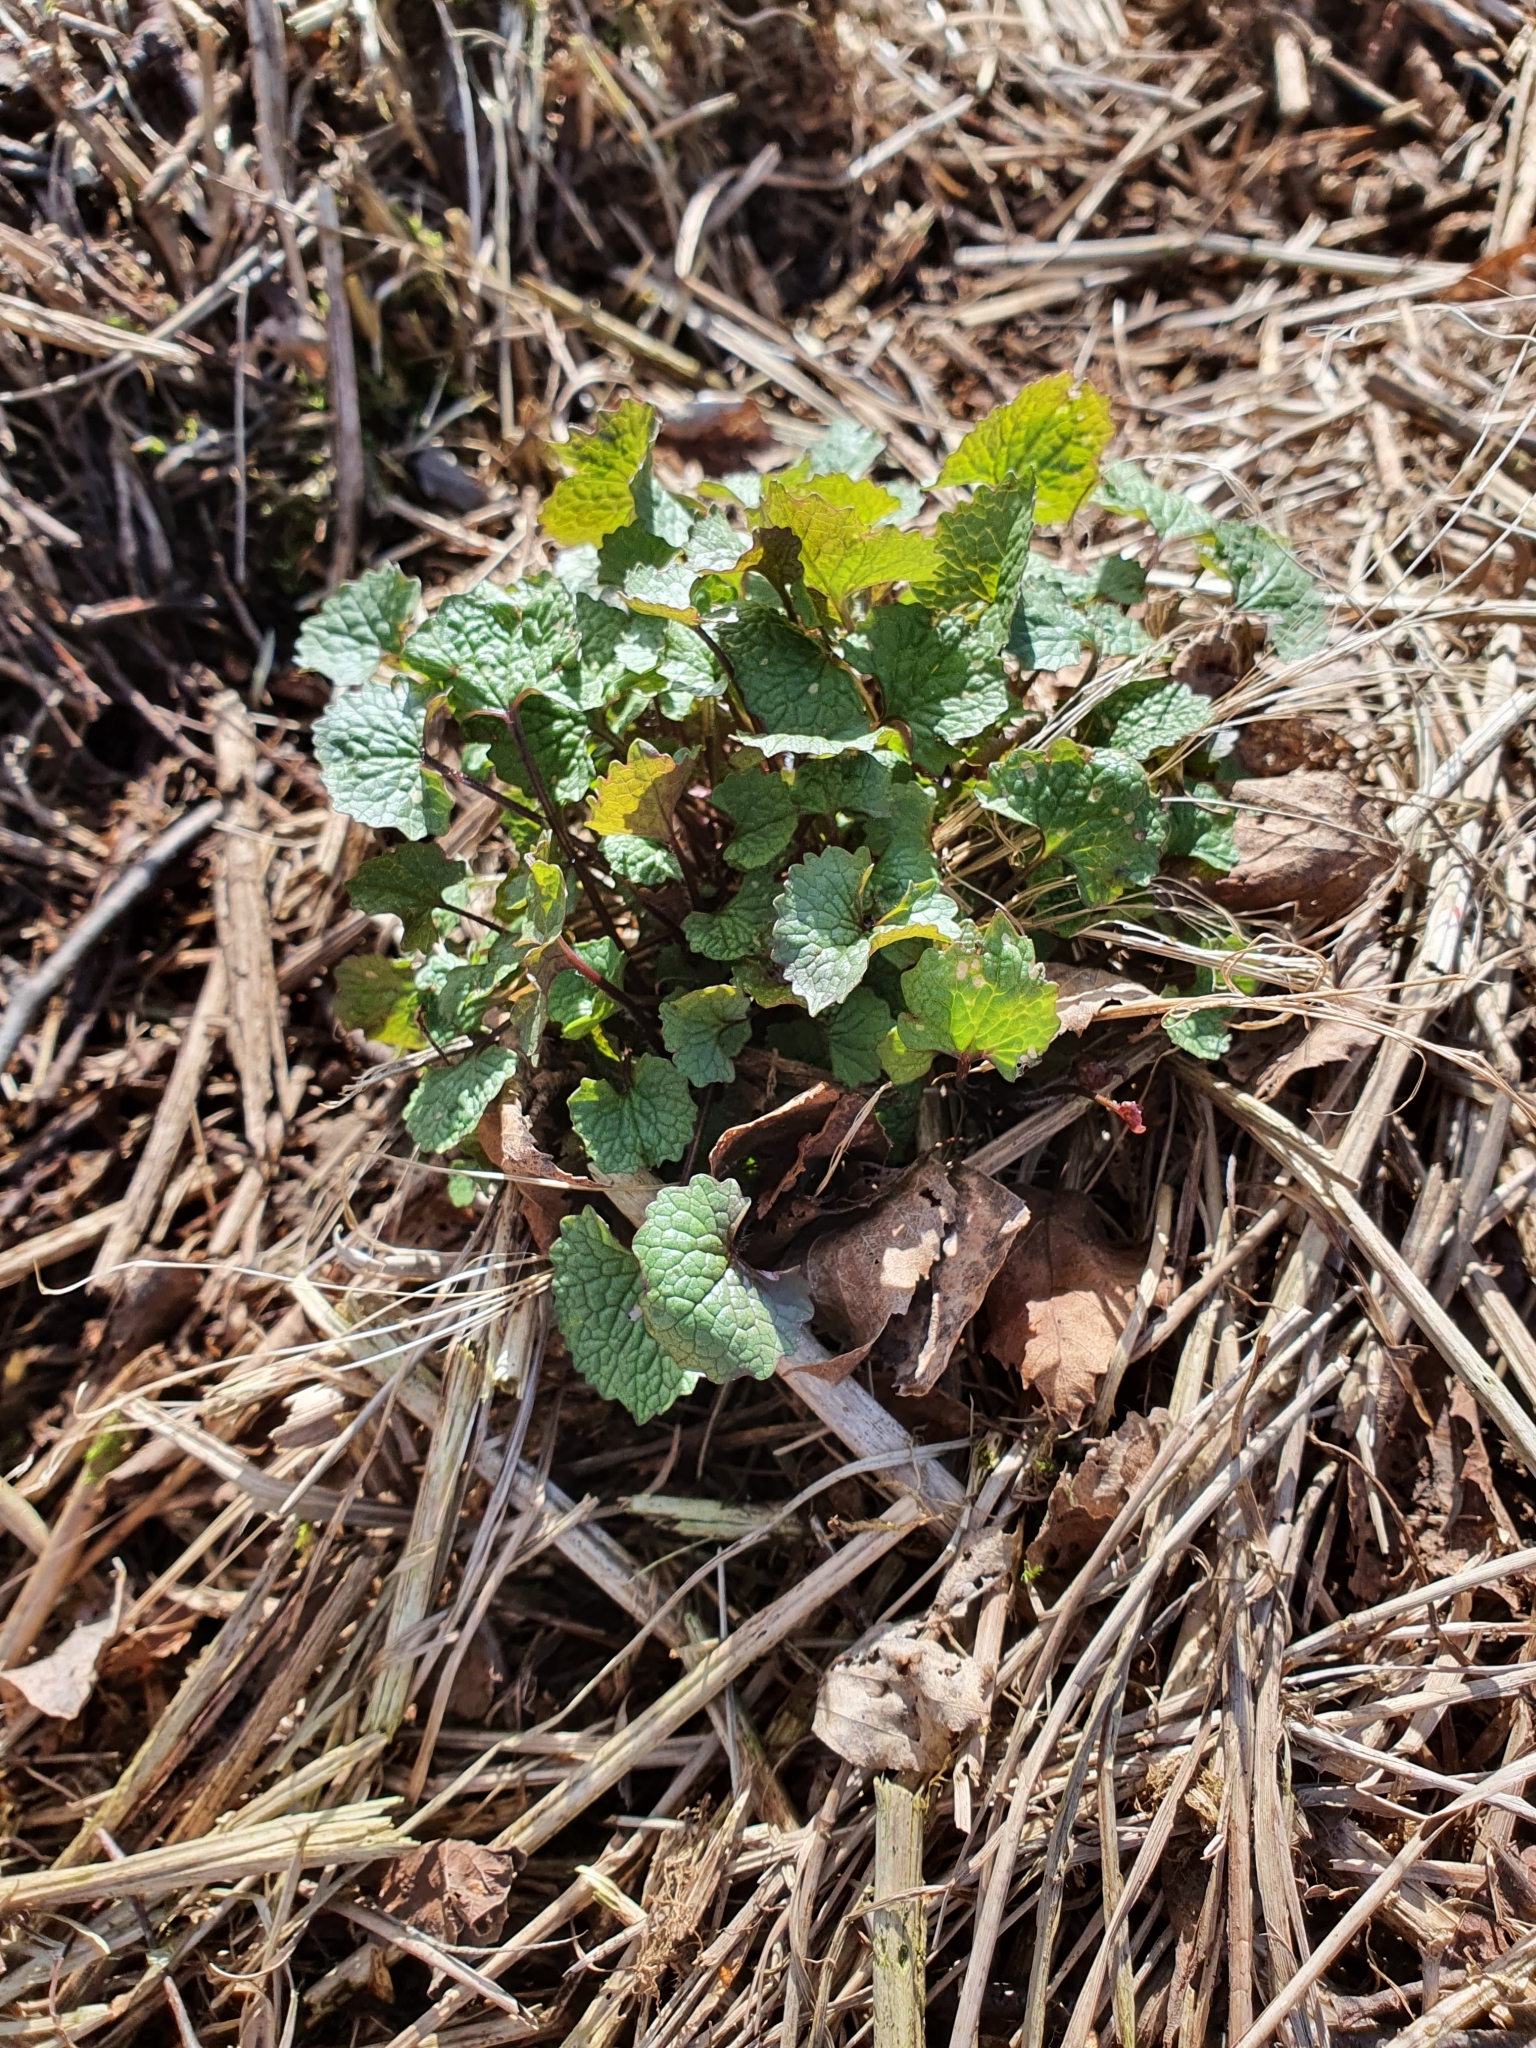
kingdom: Plantae
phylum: Tracheophyta
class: Magnoliopsida
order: Brassicales
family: Brassicaceae
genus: Alliaria
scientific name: Alliaria petiolata
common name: Garlic mustard
